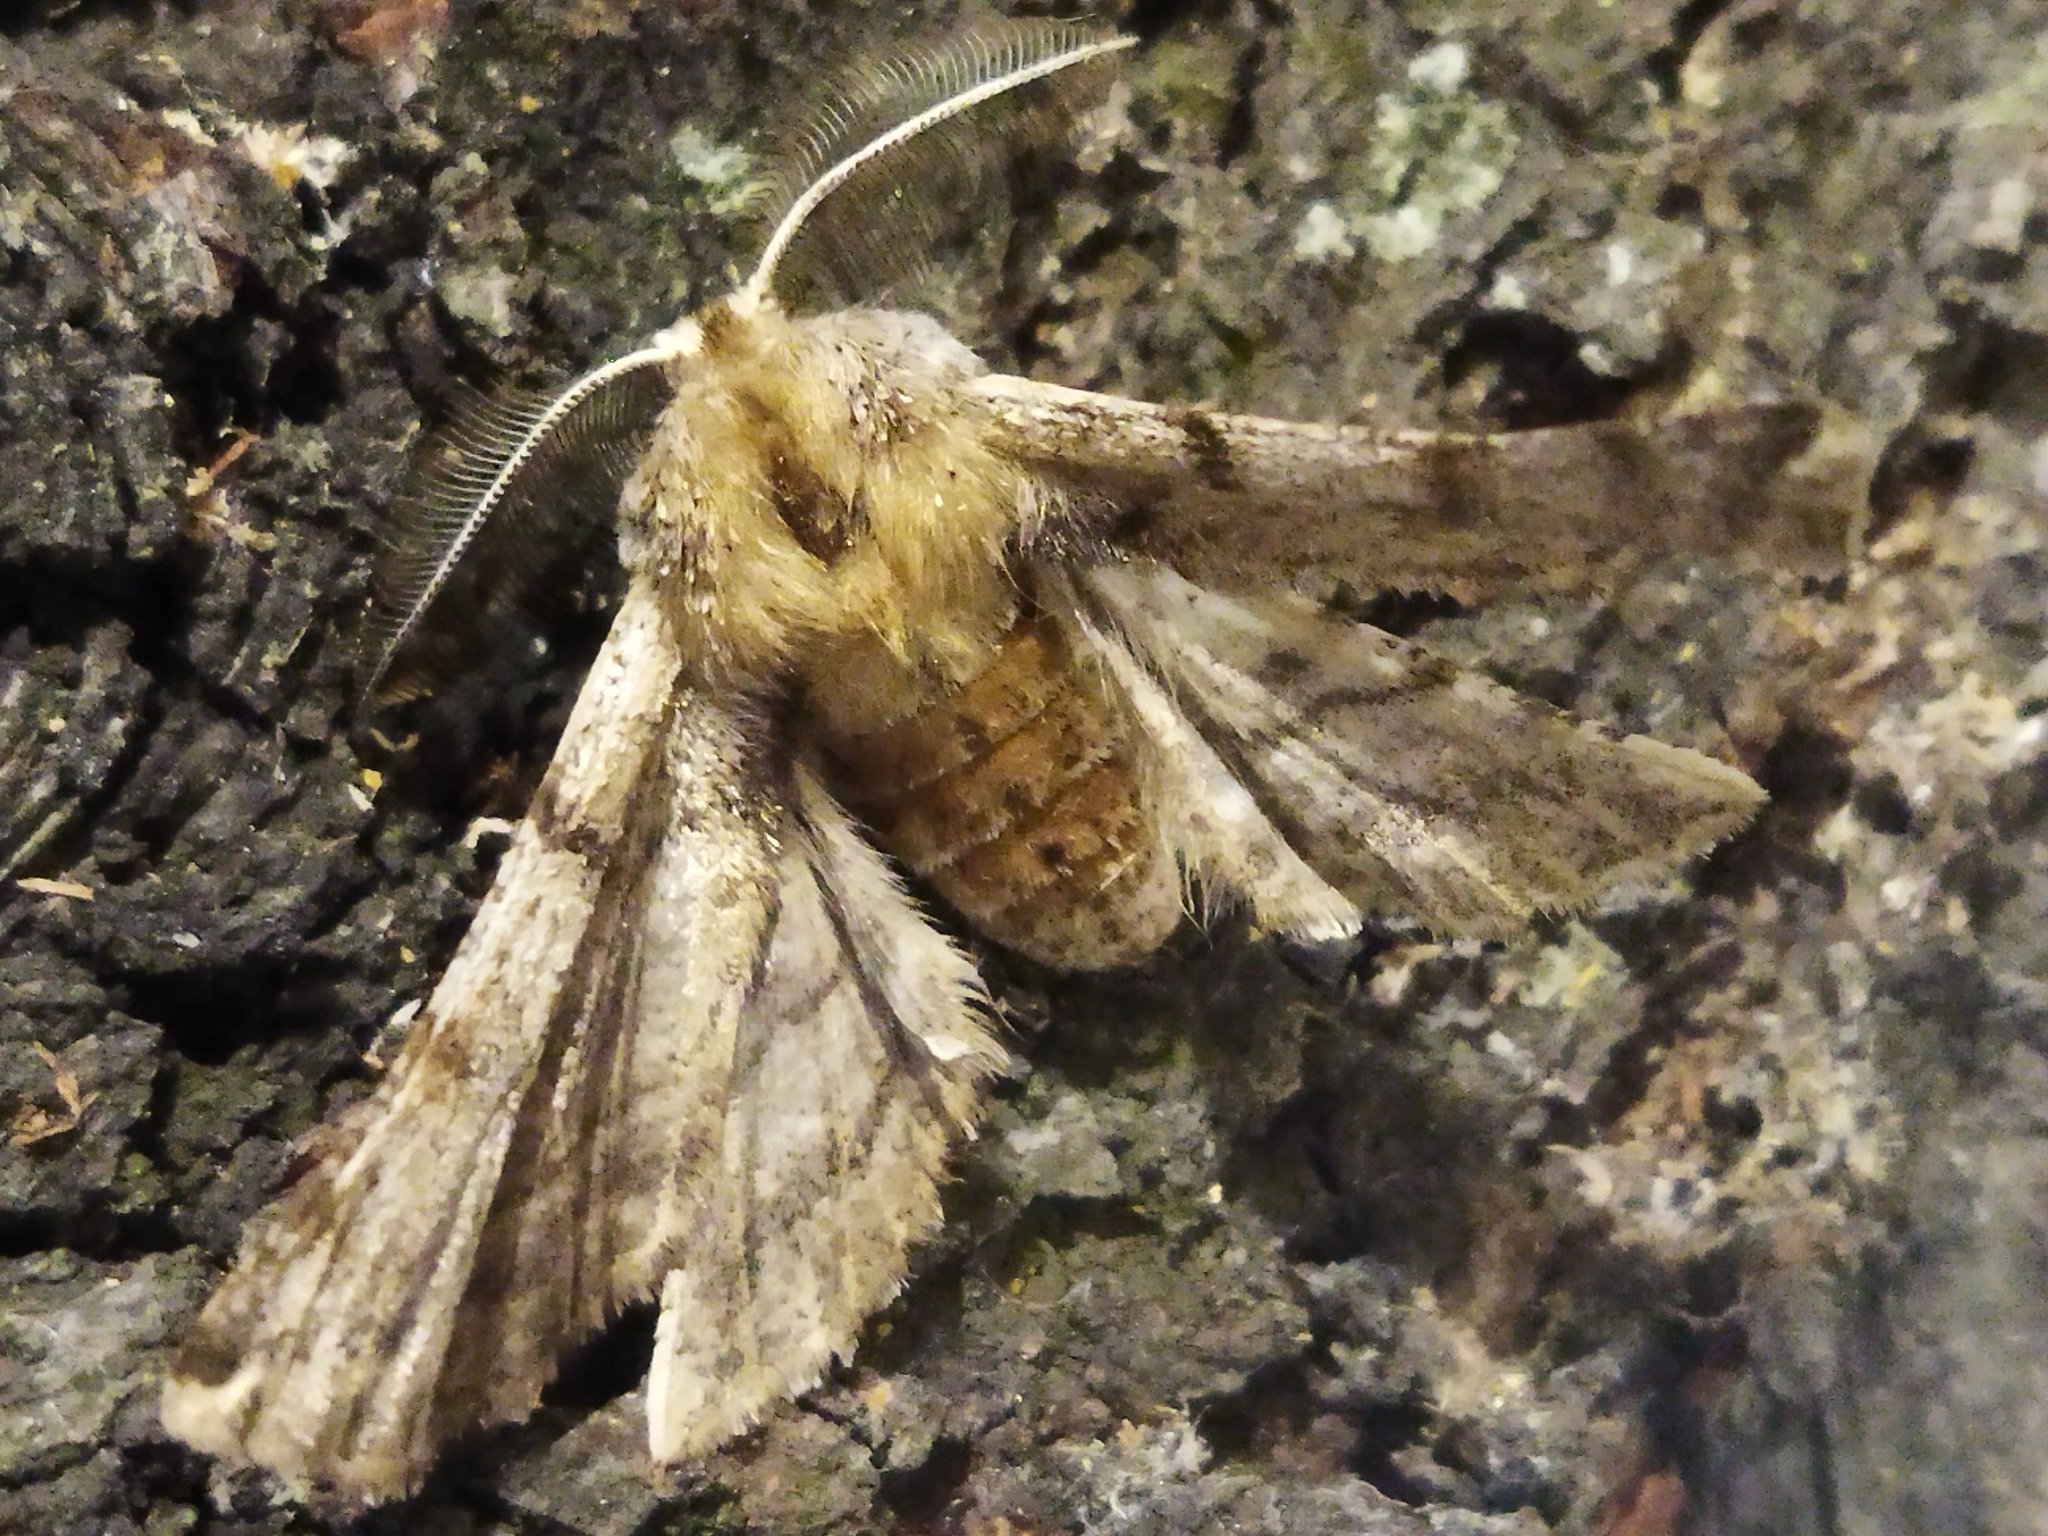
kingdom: Animalia
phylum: Arthropoda
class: Insecta
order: Lepidoptera
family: Geometridae
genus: Apochima
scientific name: Apochima flabellaria
